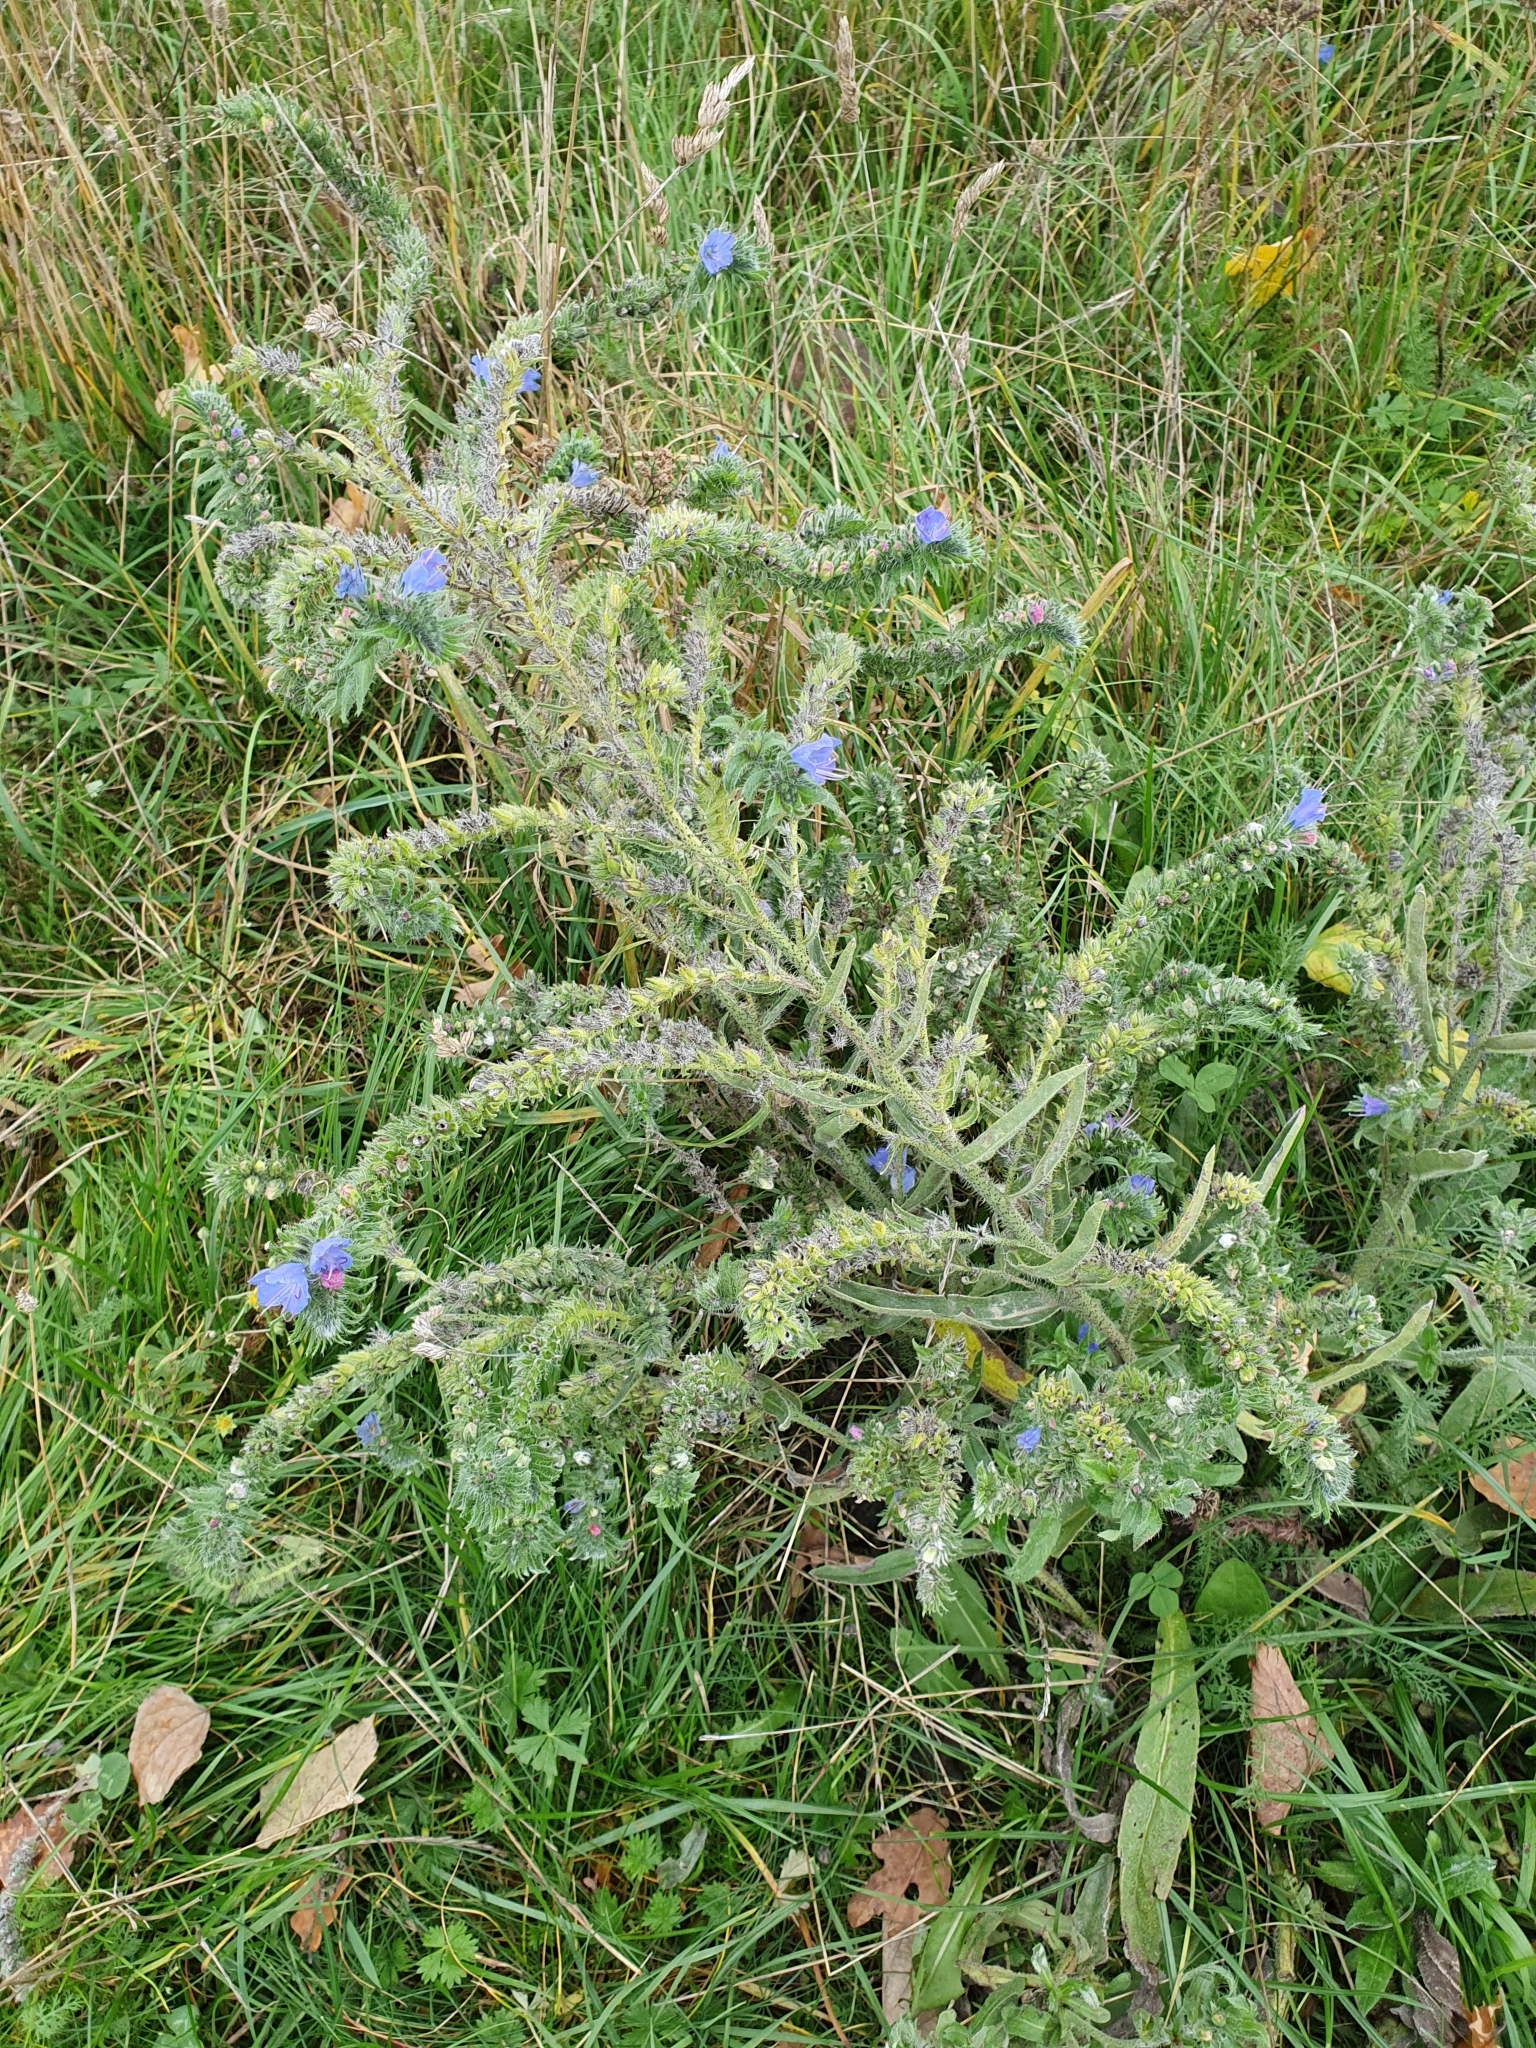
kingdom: Plantae
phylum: Tracheophyta
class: Magnoliopsida
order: Boraginales
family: Boraginaceae
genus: Echium
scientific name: Echium vulgare
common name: Common viper's bugloss
